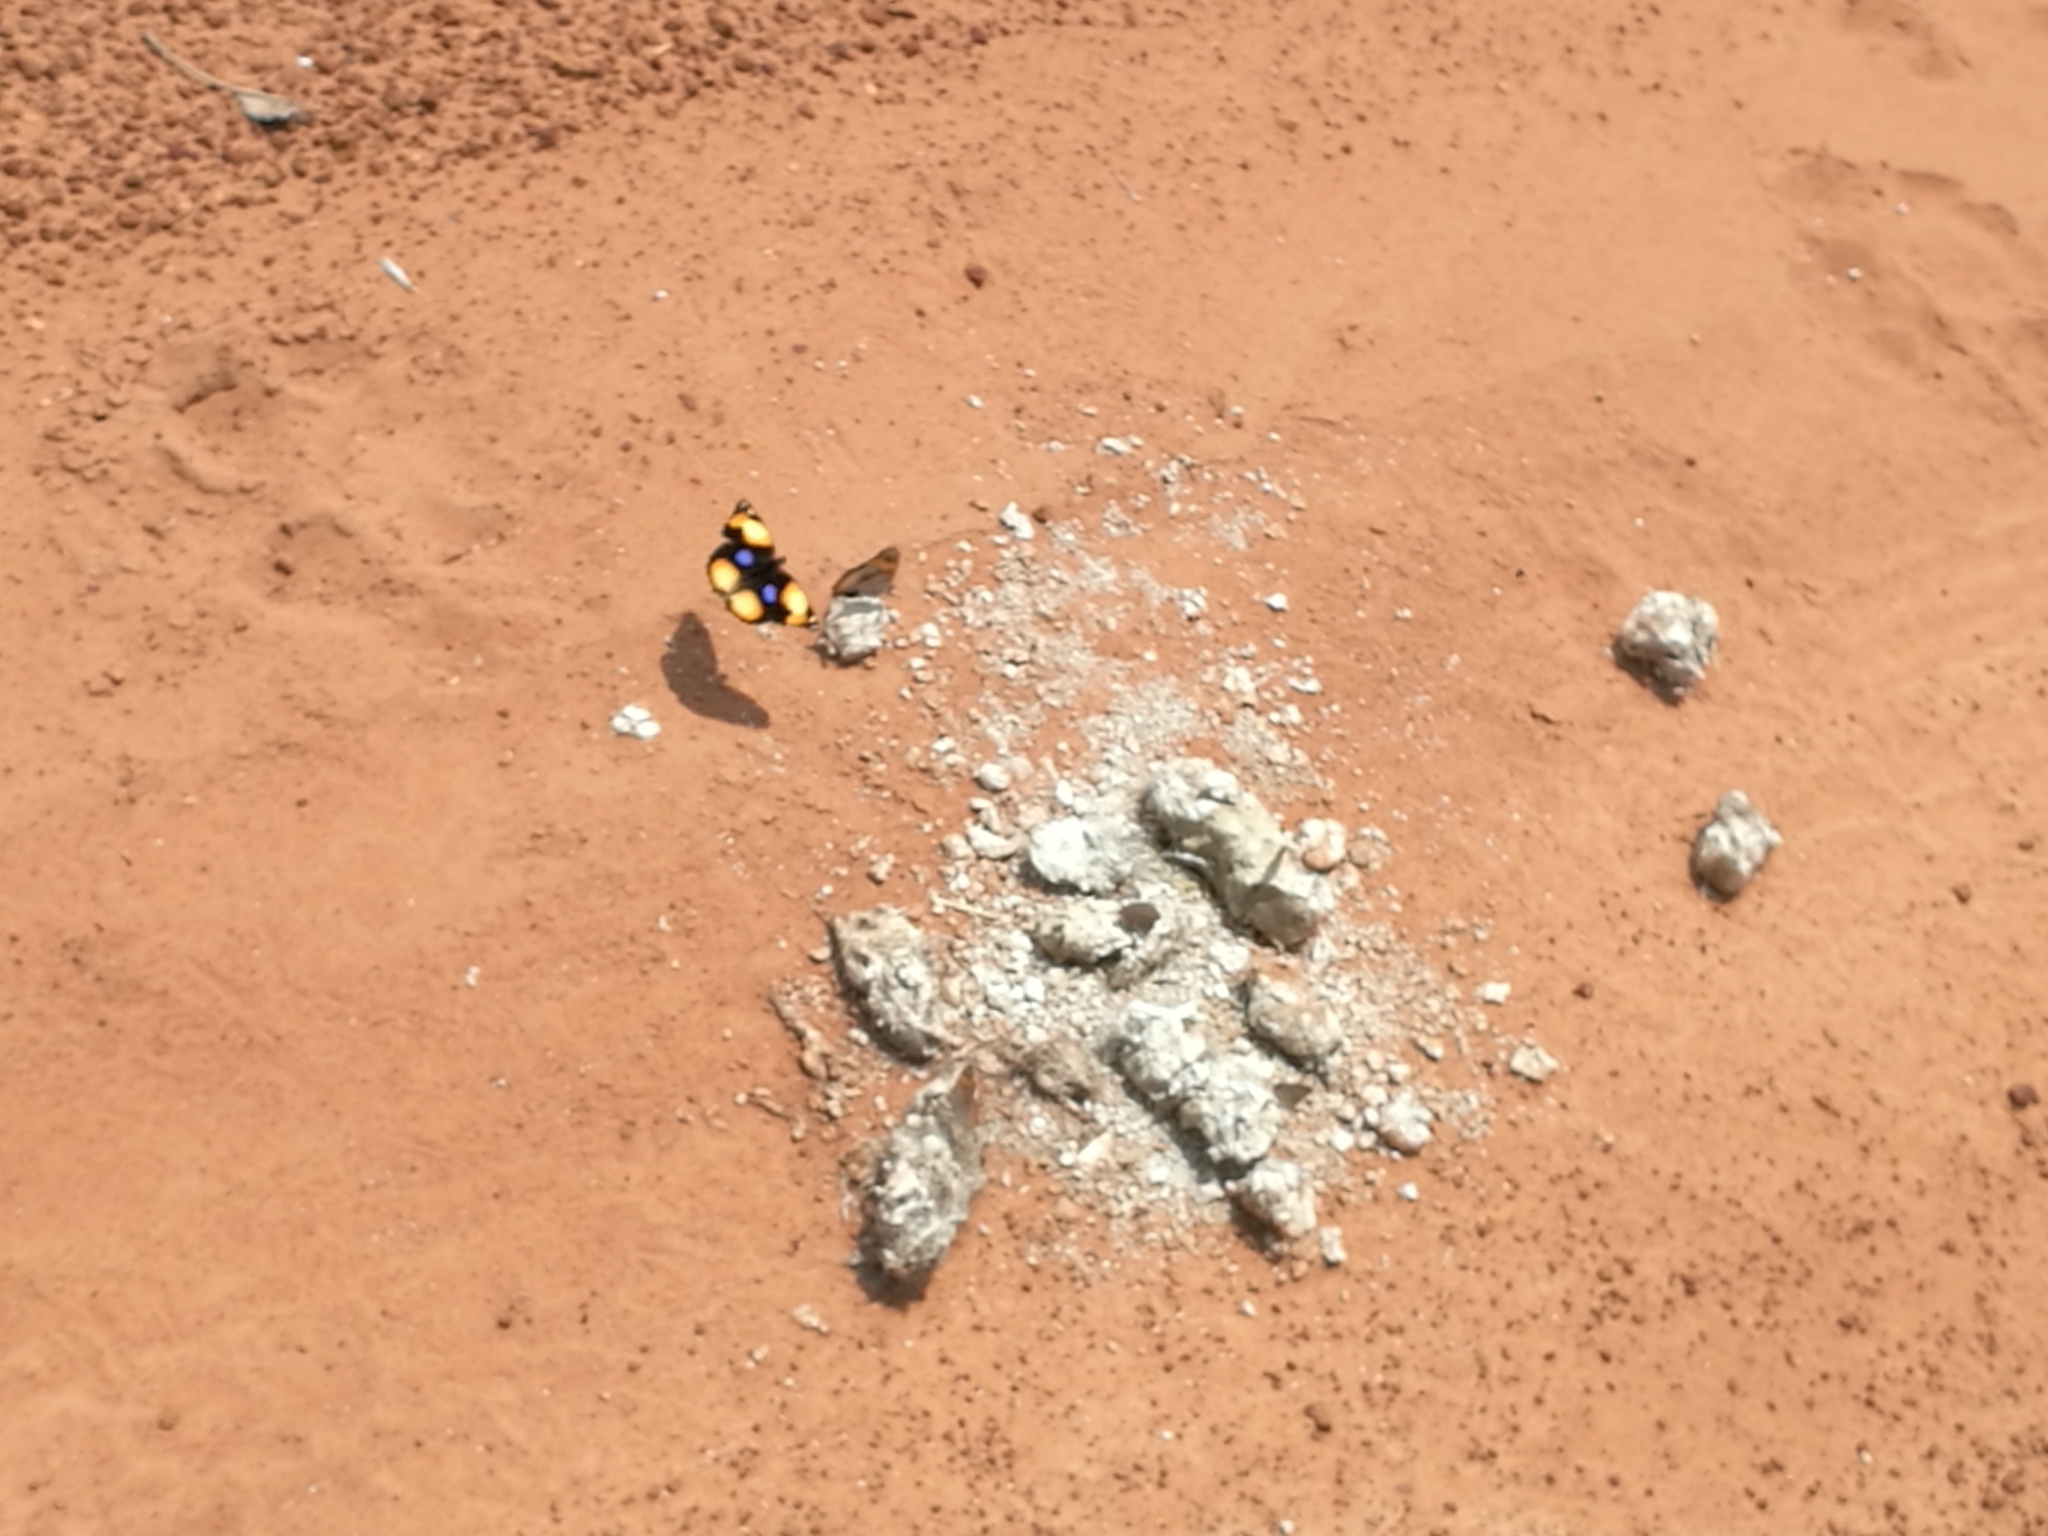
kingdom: Animalia
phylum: Arthropoda
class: Insecta
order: Lepidoptera
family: Nymphalidae
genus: Junonia
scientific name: Junonia hierta
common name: Yellow pansy
